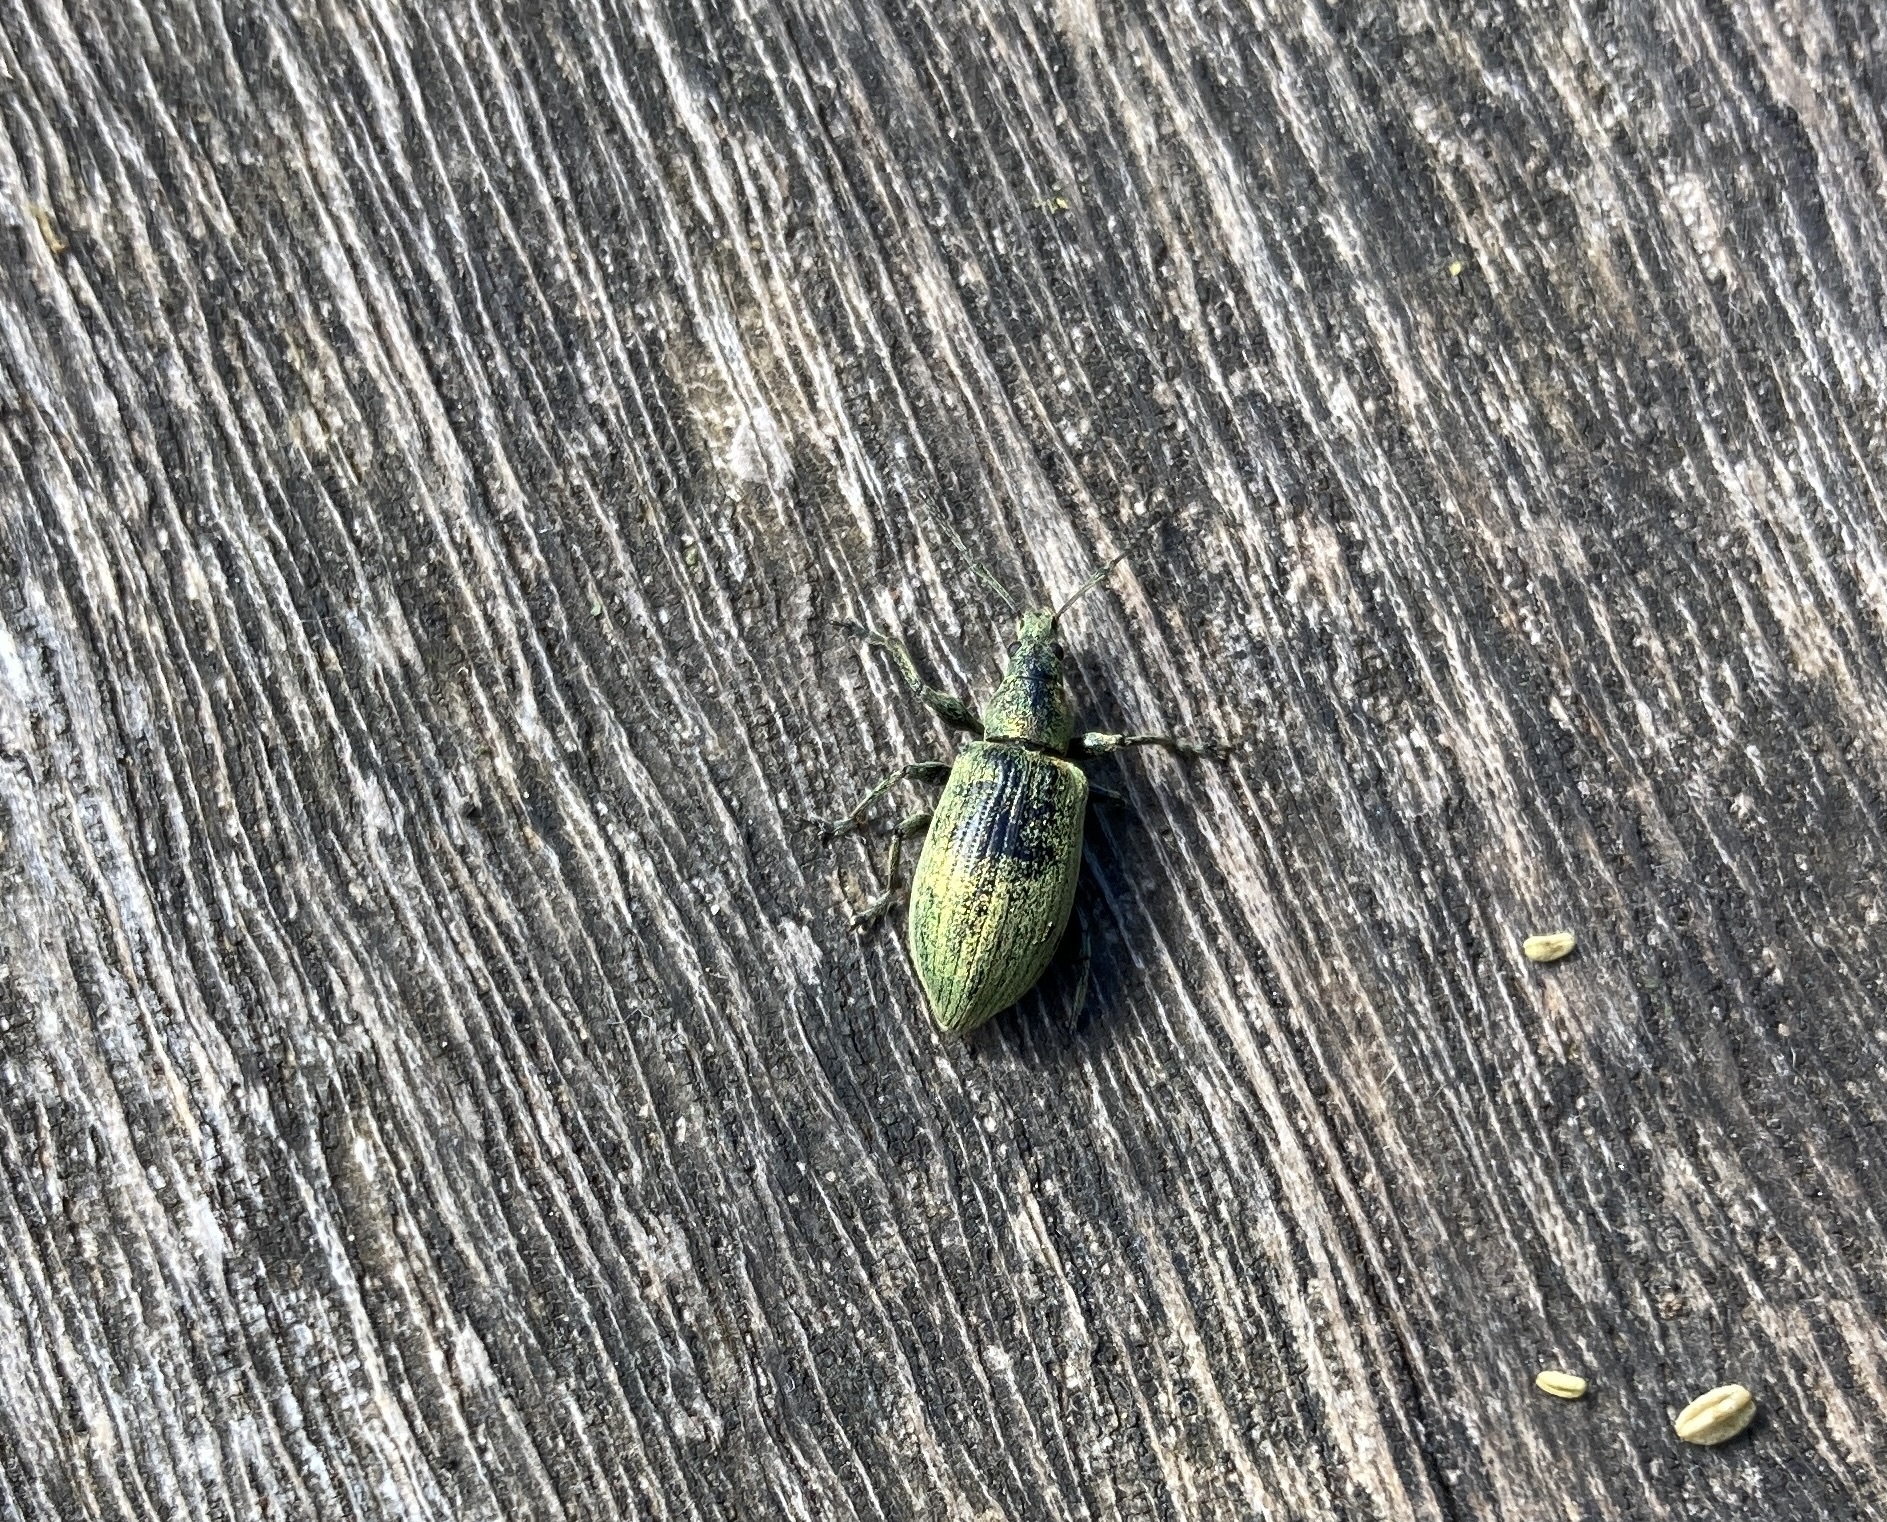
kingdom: Animalia
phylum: Arthropoda
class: Insecta
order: Coleoptera
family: Curculionidae
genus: Phyllobius
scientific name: Phyllobius pomaceus
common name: Green nettle weevil
